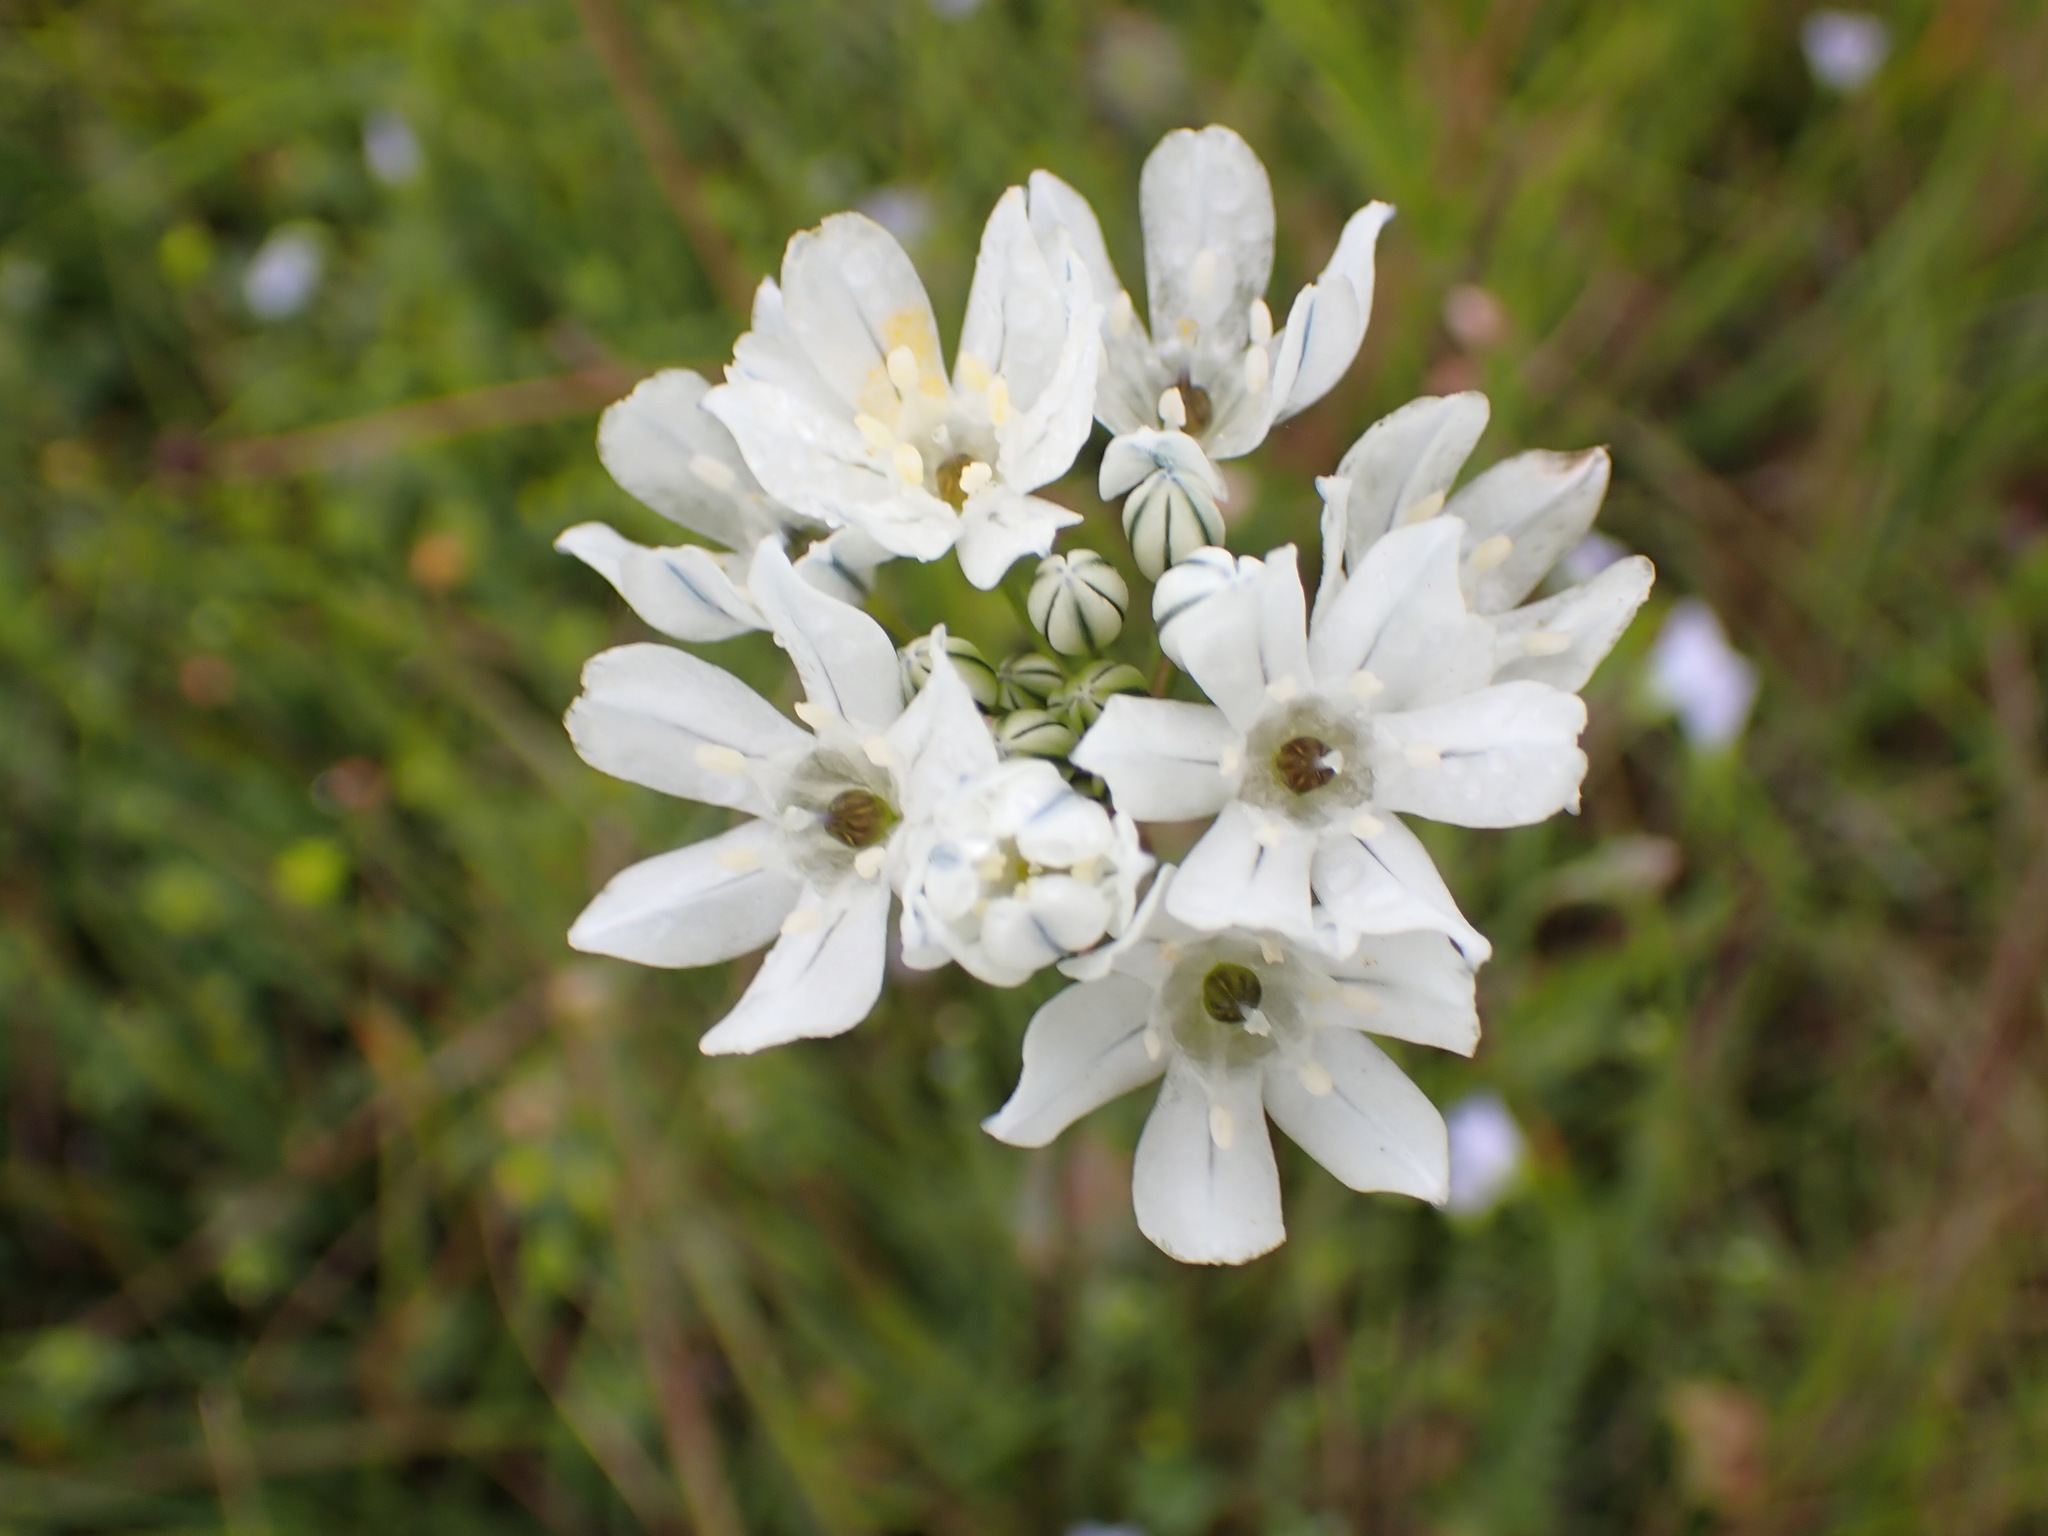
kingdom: Plantae
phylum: Tracheophyta
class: Liliopsida
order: Asparagales
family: Asparagaceae
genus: Triteleia
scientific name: Triteleia hyacinthina
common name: White brodiaea
